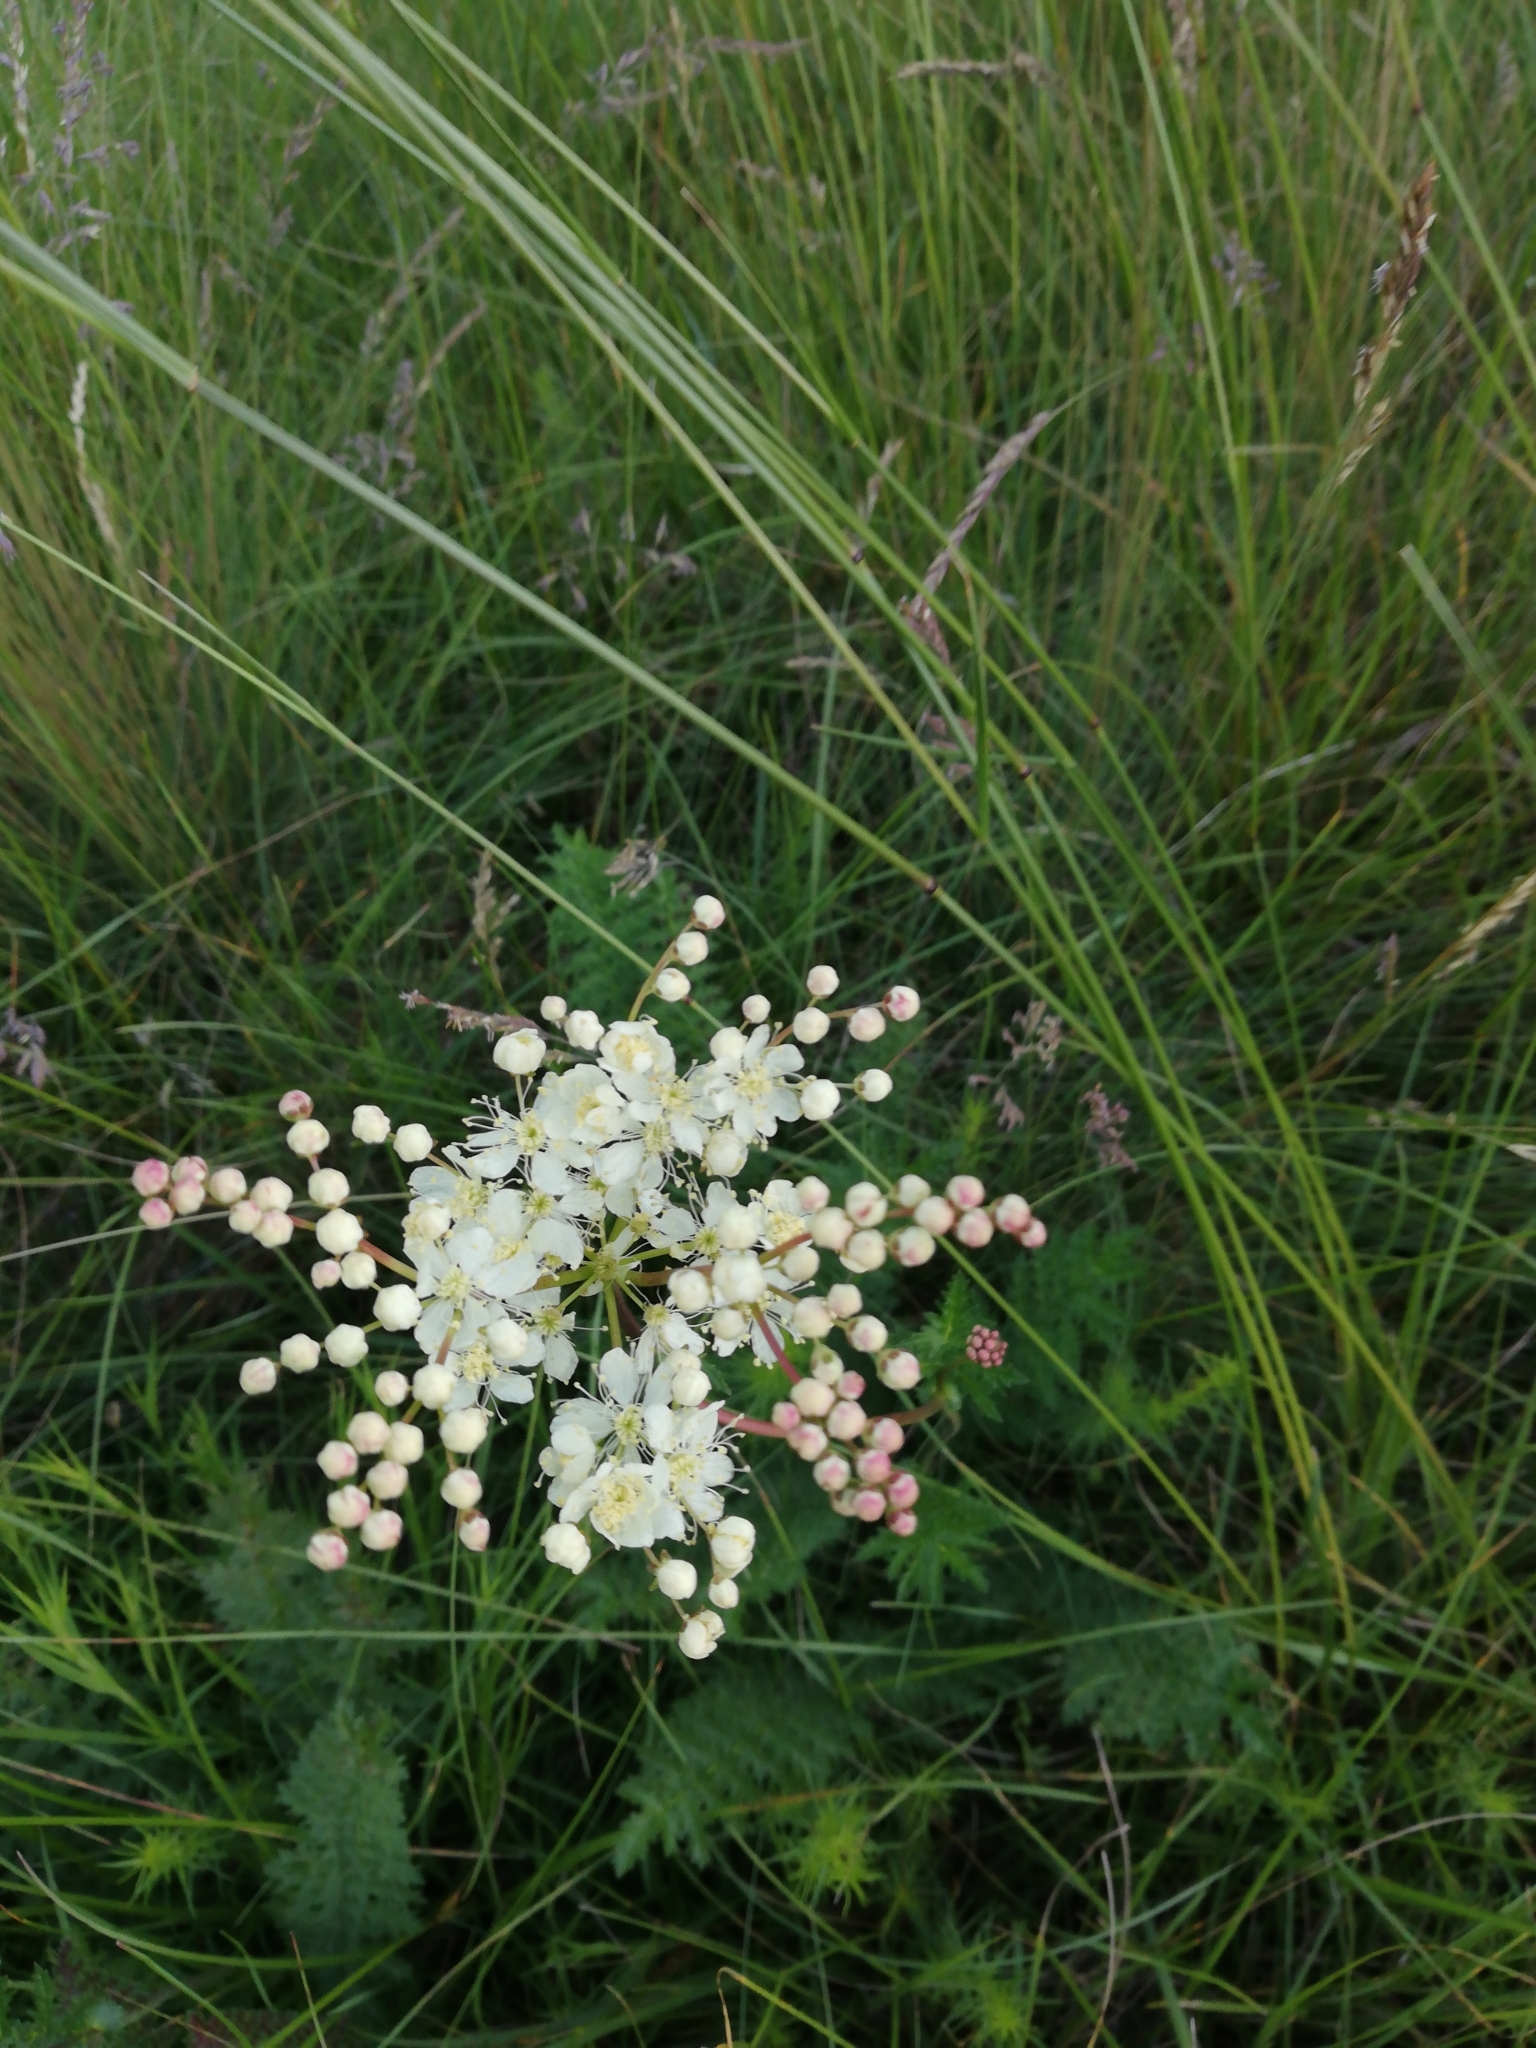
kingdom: Plantae
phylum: Tracheophyta
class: Magnoliopsida
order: Rosales
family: Rosaceae
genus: Filipendula
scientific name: Filipendula vulgaris
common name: Dropwort
